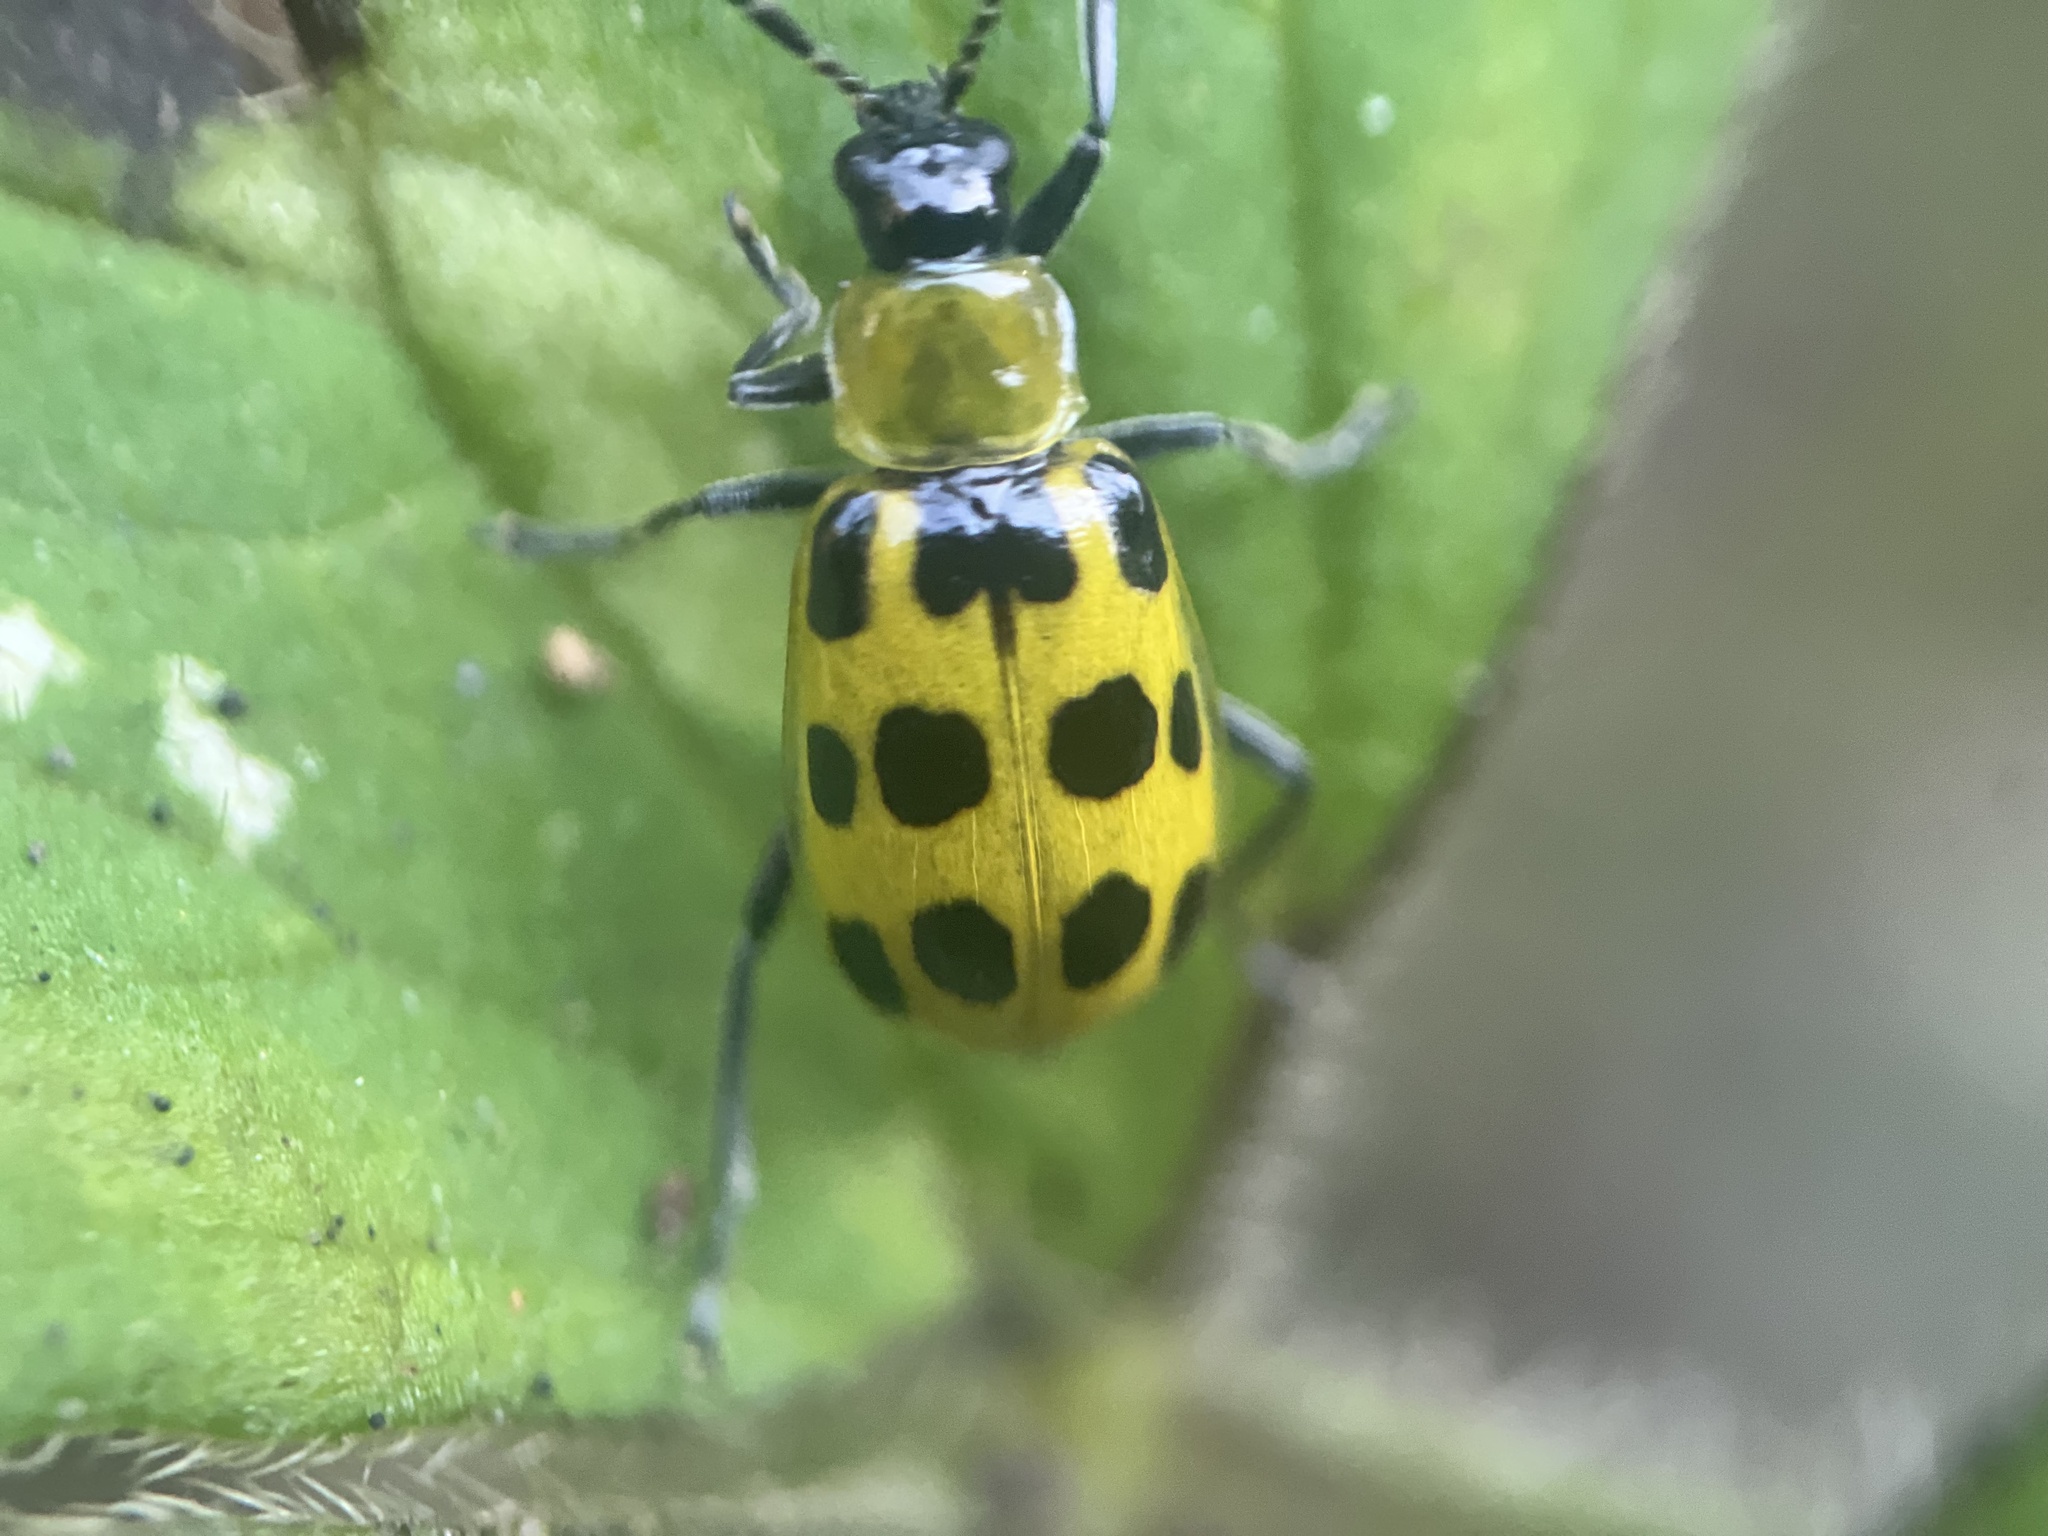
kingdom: Animalia
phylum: Arthropoda
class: Insecta
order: Coleoptera
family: Chrysomelidae
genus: Diabrotica
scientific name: Diabrotica undecimpunctata
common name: Spotted cucumber beetle
